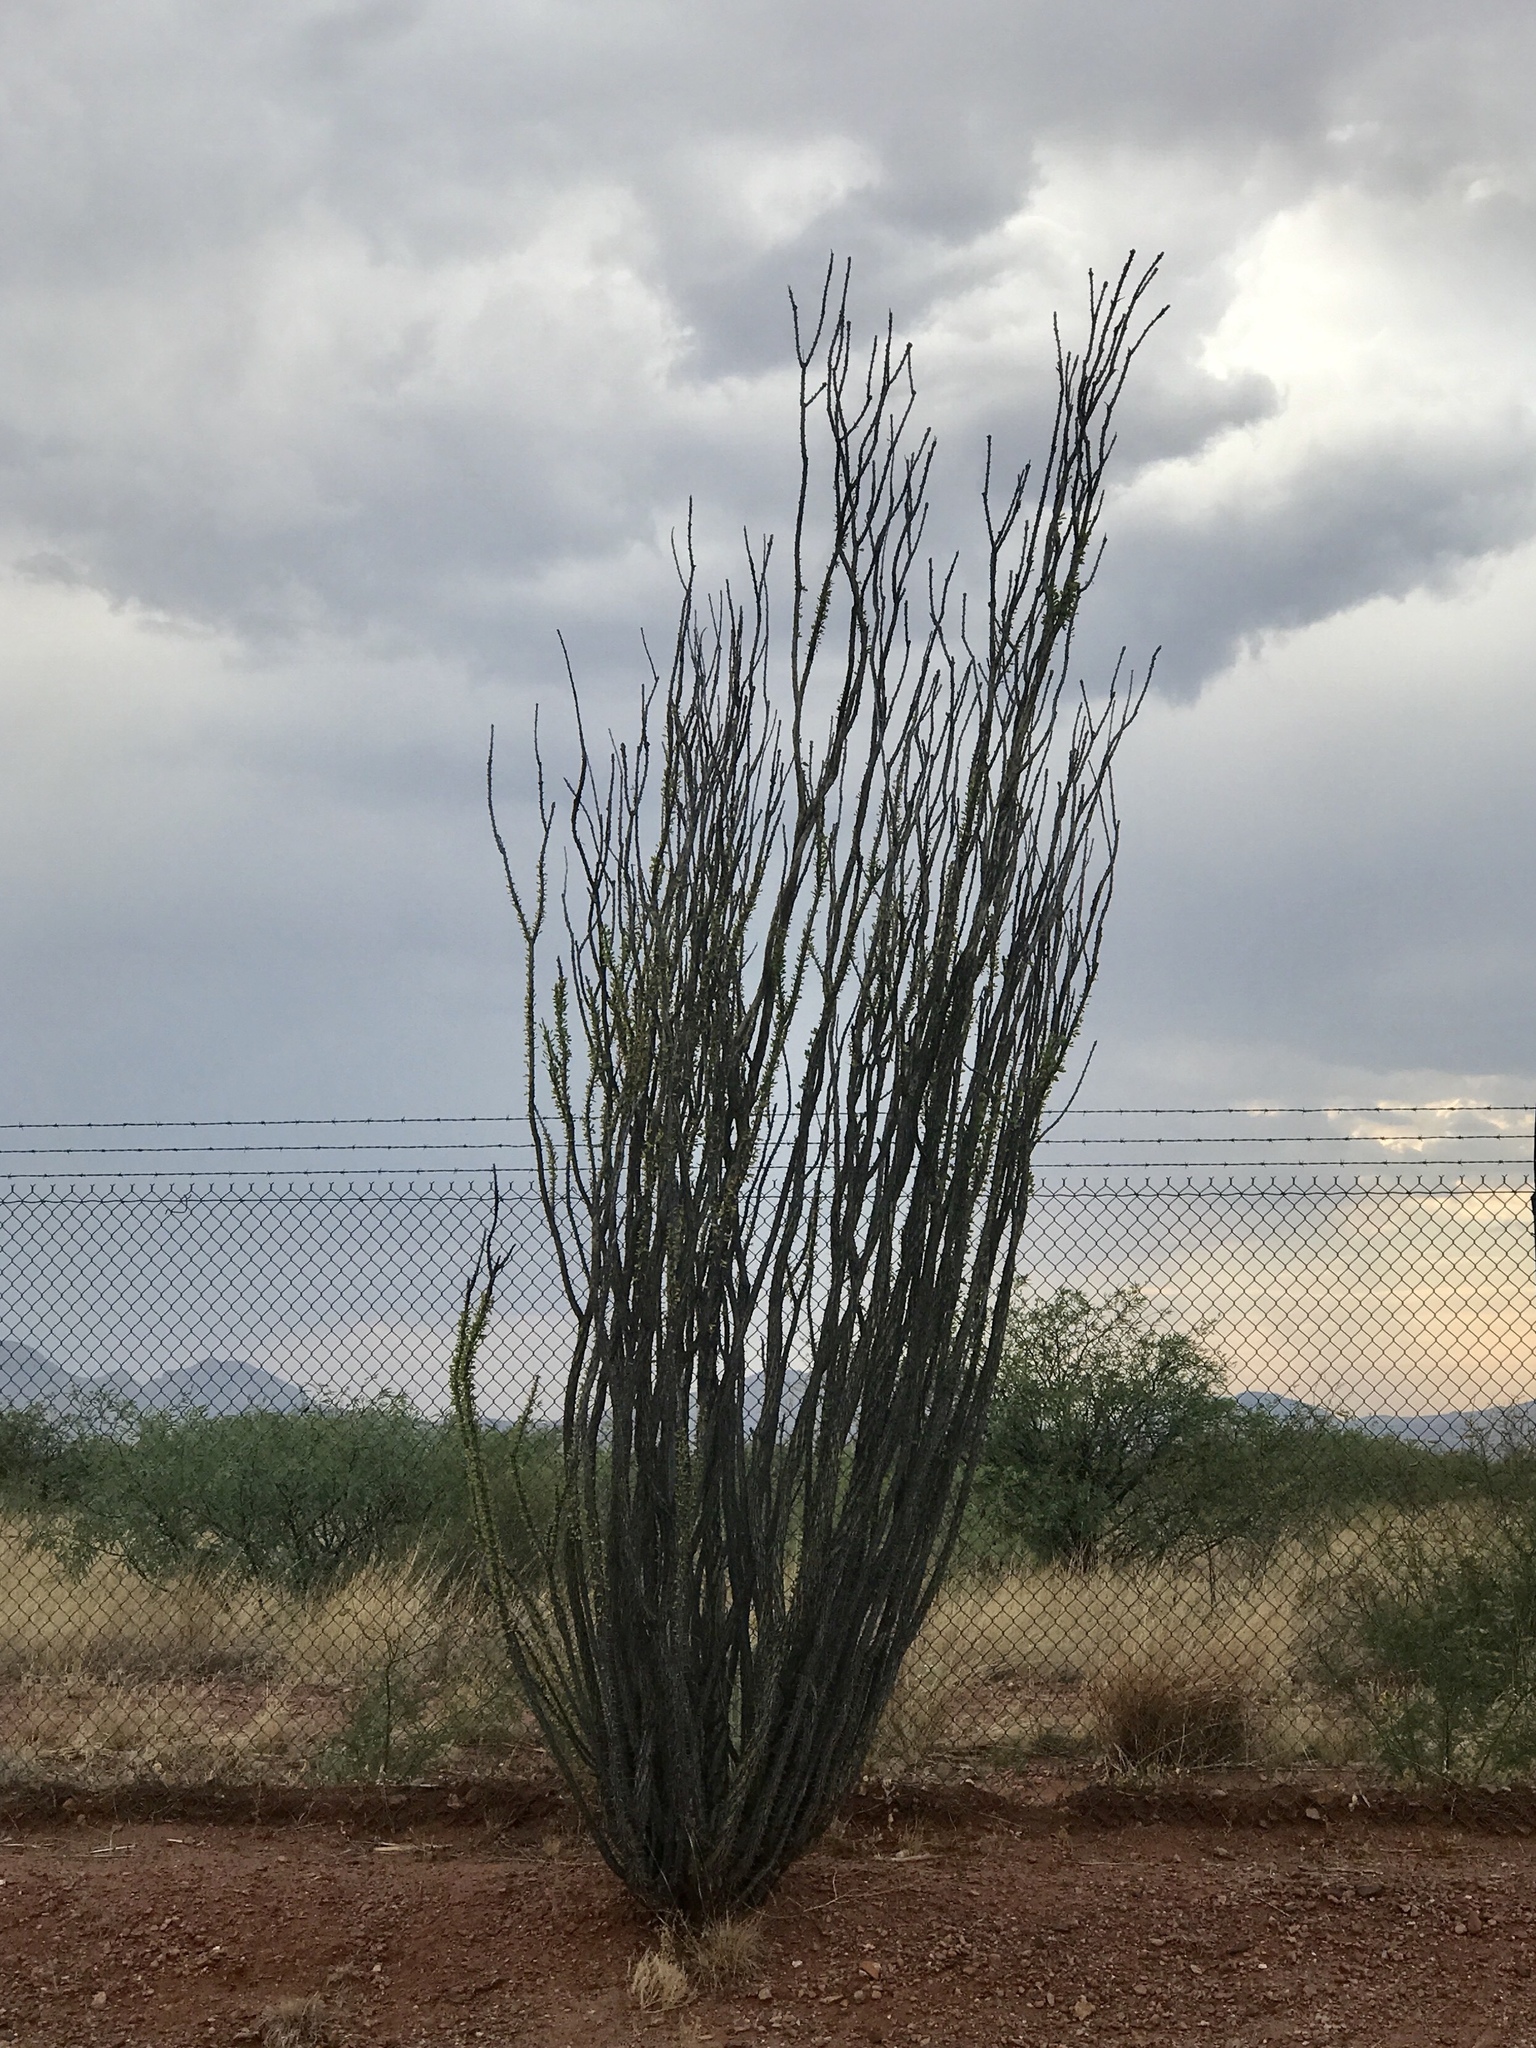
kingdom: Plantae
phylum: Tracheophyta
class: Magnoliopsida
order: Ericales
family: Fouquieriaceae
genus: Fouquieria
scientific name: Fouquieria splendens
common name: Vine-cactus
